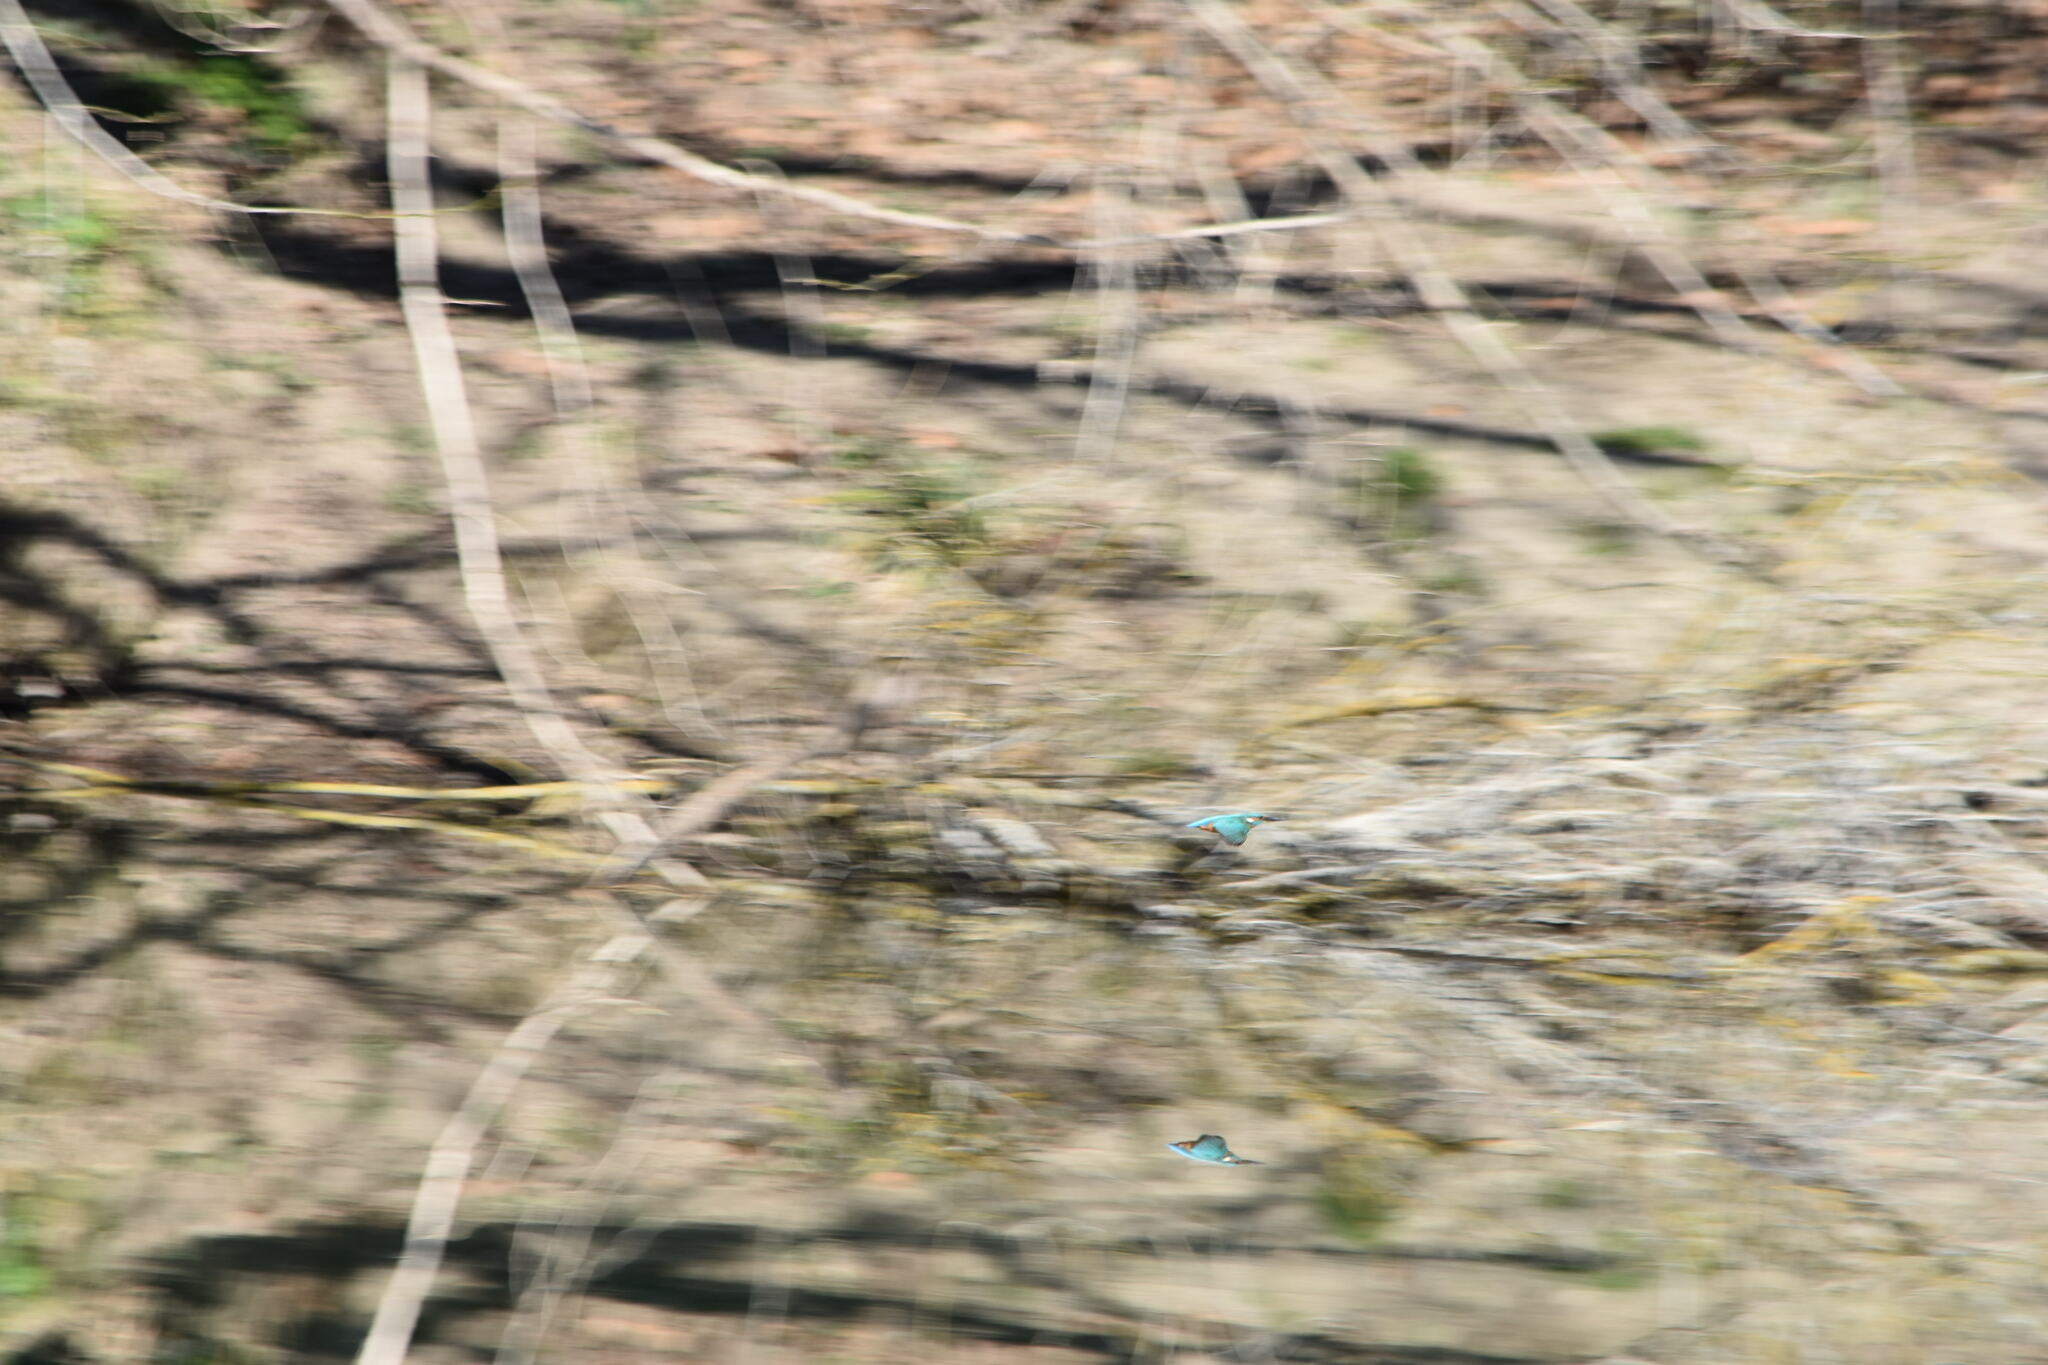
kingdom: Animalia
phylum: Chordata
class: Aves
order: Coraciiformes
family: Alcedinidae
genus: Alcedo
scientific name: Alcedo atthis
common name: Common kingfisher
